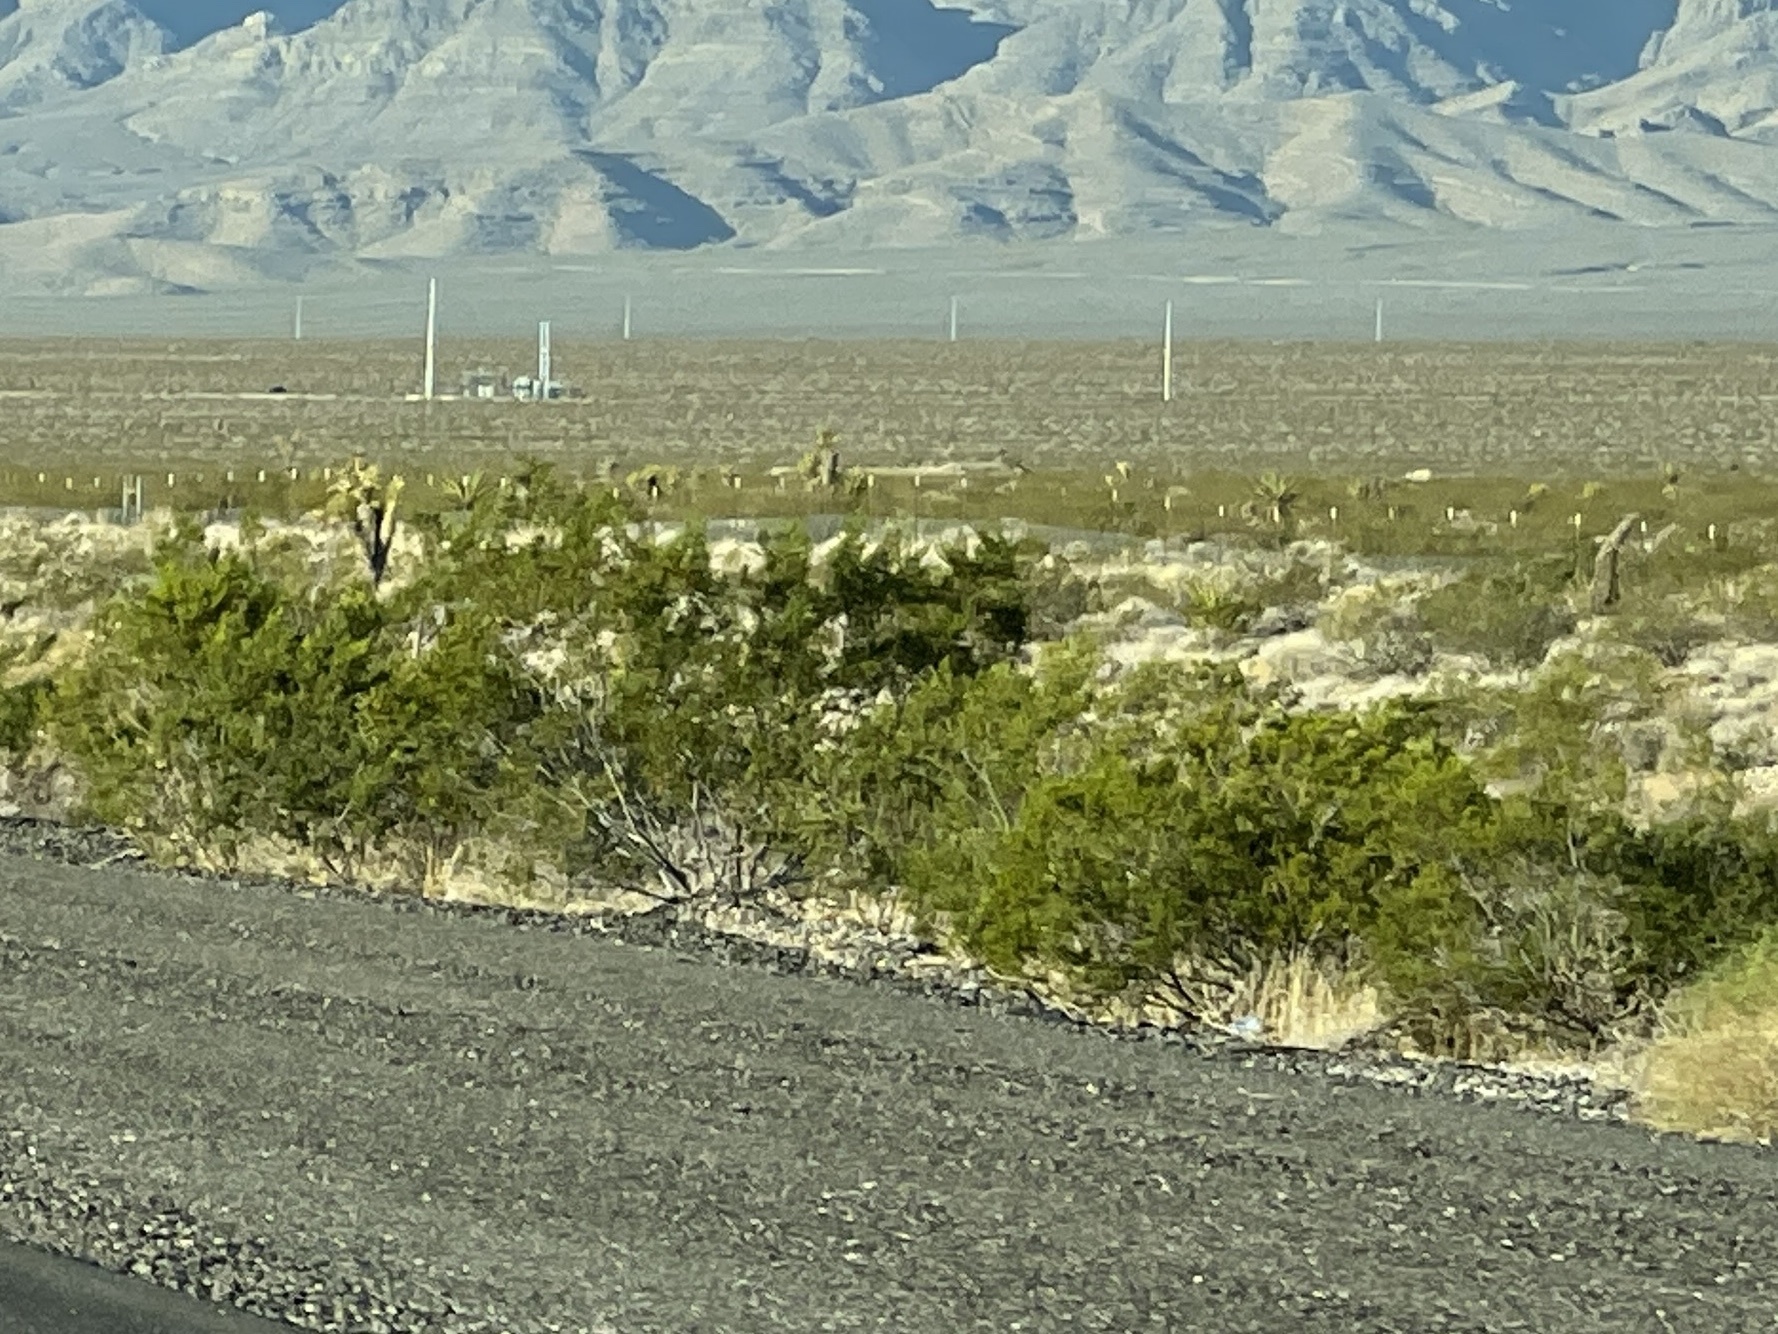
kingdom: Plantae
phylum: Tracheophyta
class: Magnoliopsida
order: Zygophyllales
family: Zygophyllaceae
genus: Larrea
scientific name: Larrea tridentata
